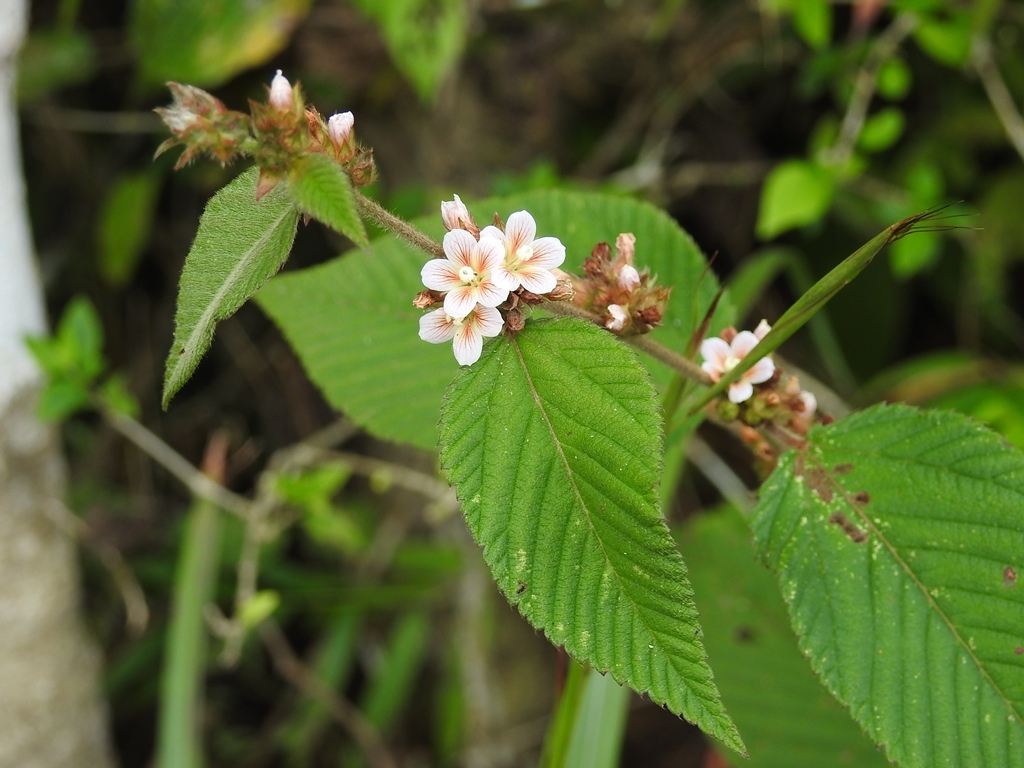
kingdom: Plantae
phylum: Tracheophyta
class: Magnoliopsida
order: Malvales
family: Malvaceae
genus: Melochia
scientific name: Melochia nodiflora
